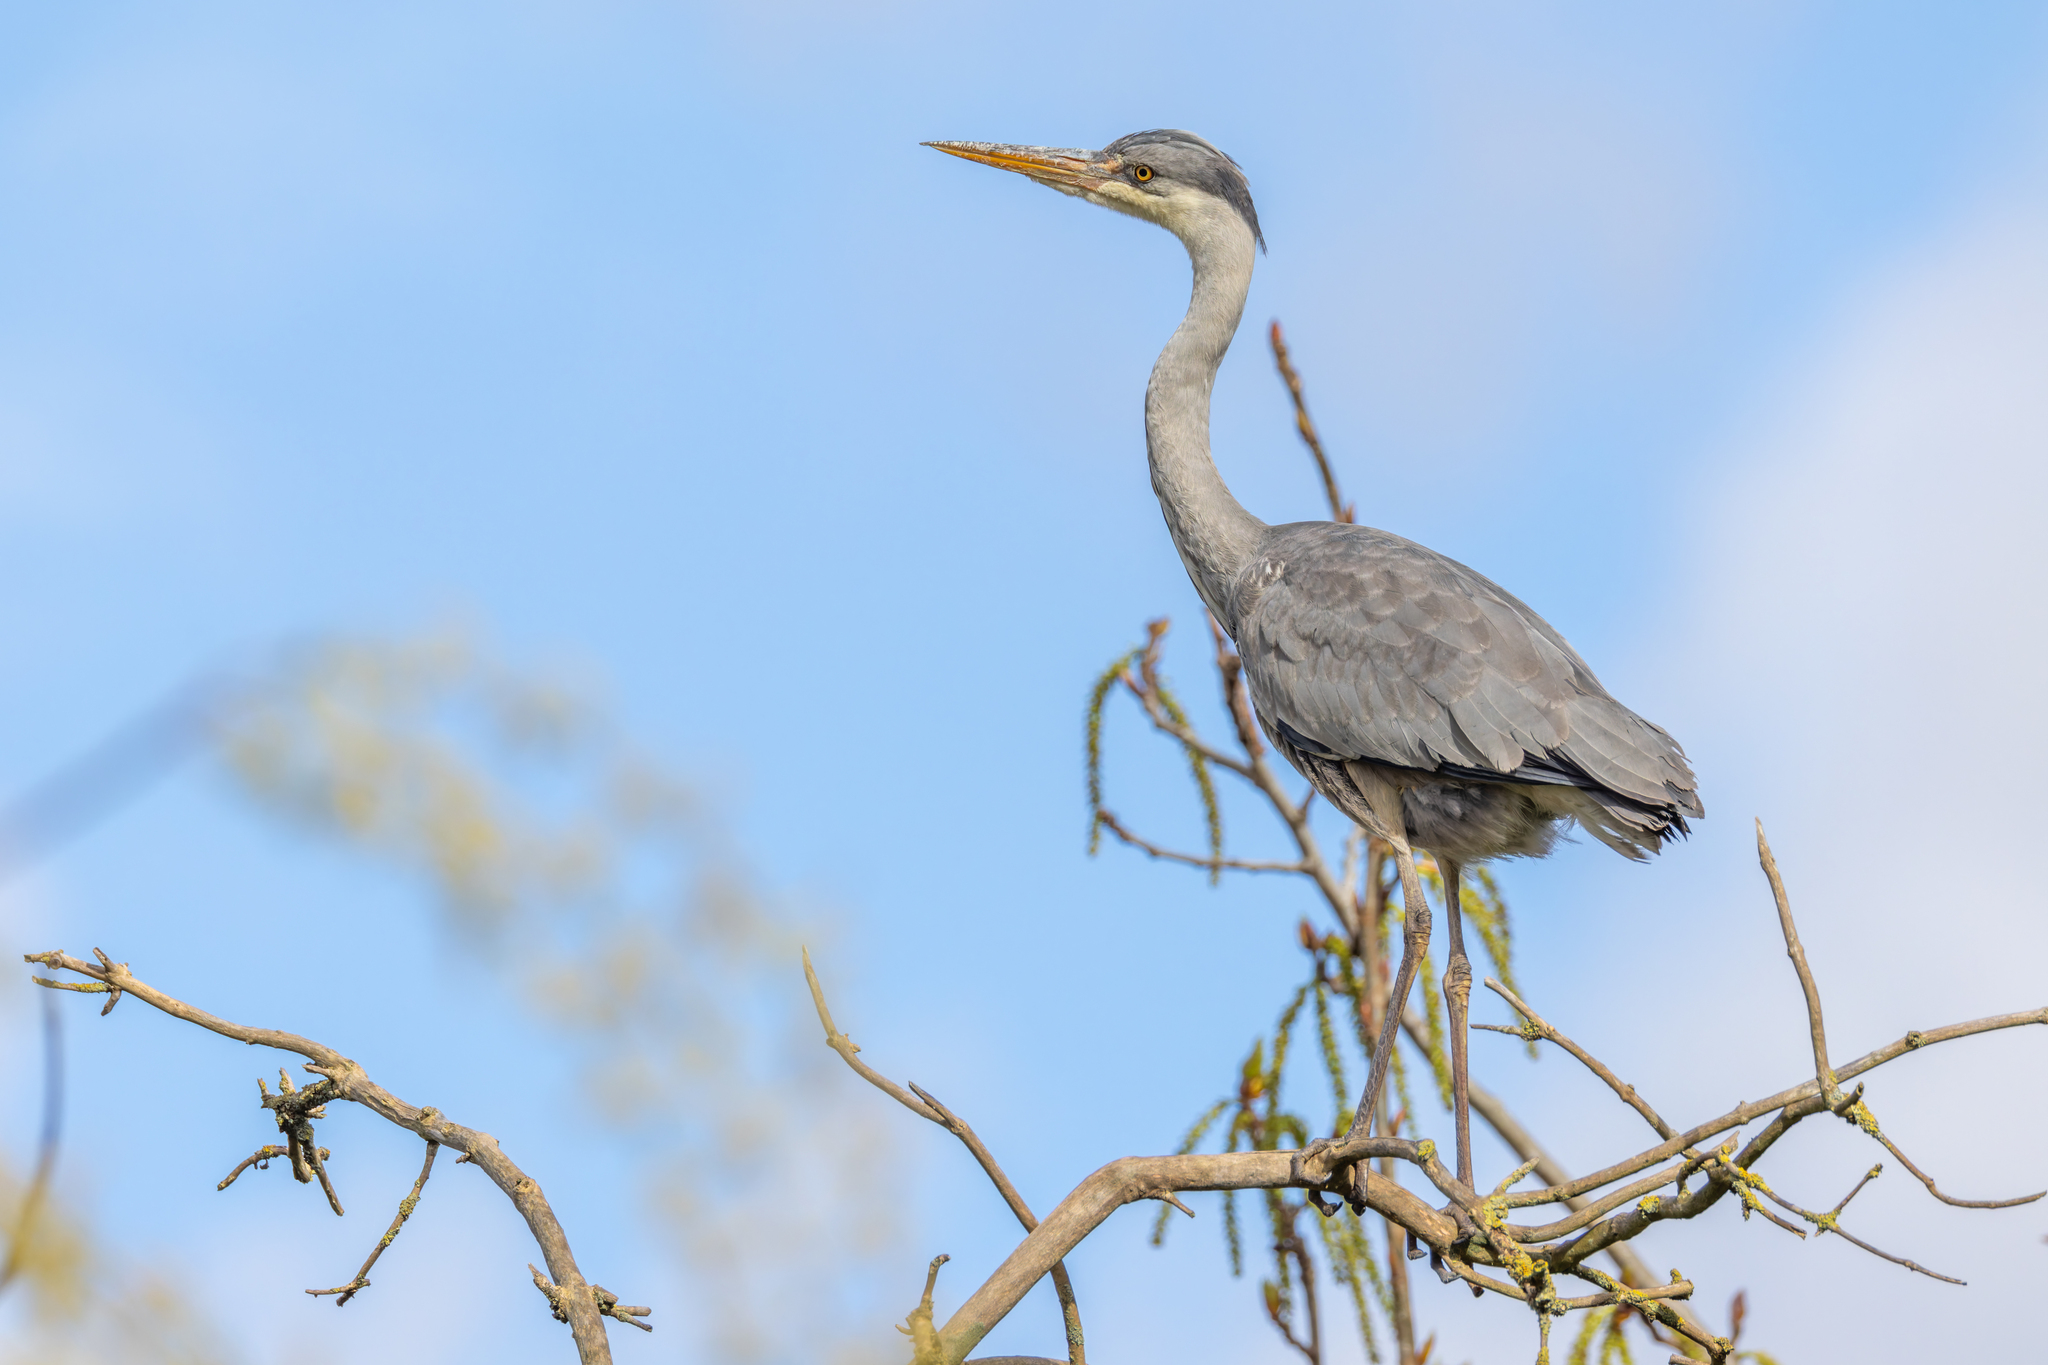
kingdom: Animalia
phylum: Chordata
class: Aves
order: Pelecaniformes
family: Ardeidae
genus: Ardea
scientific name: Ardea cinerea
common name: Grey heron
